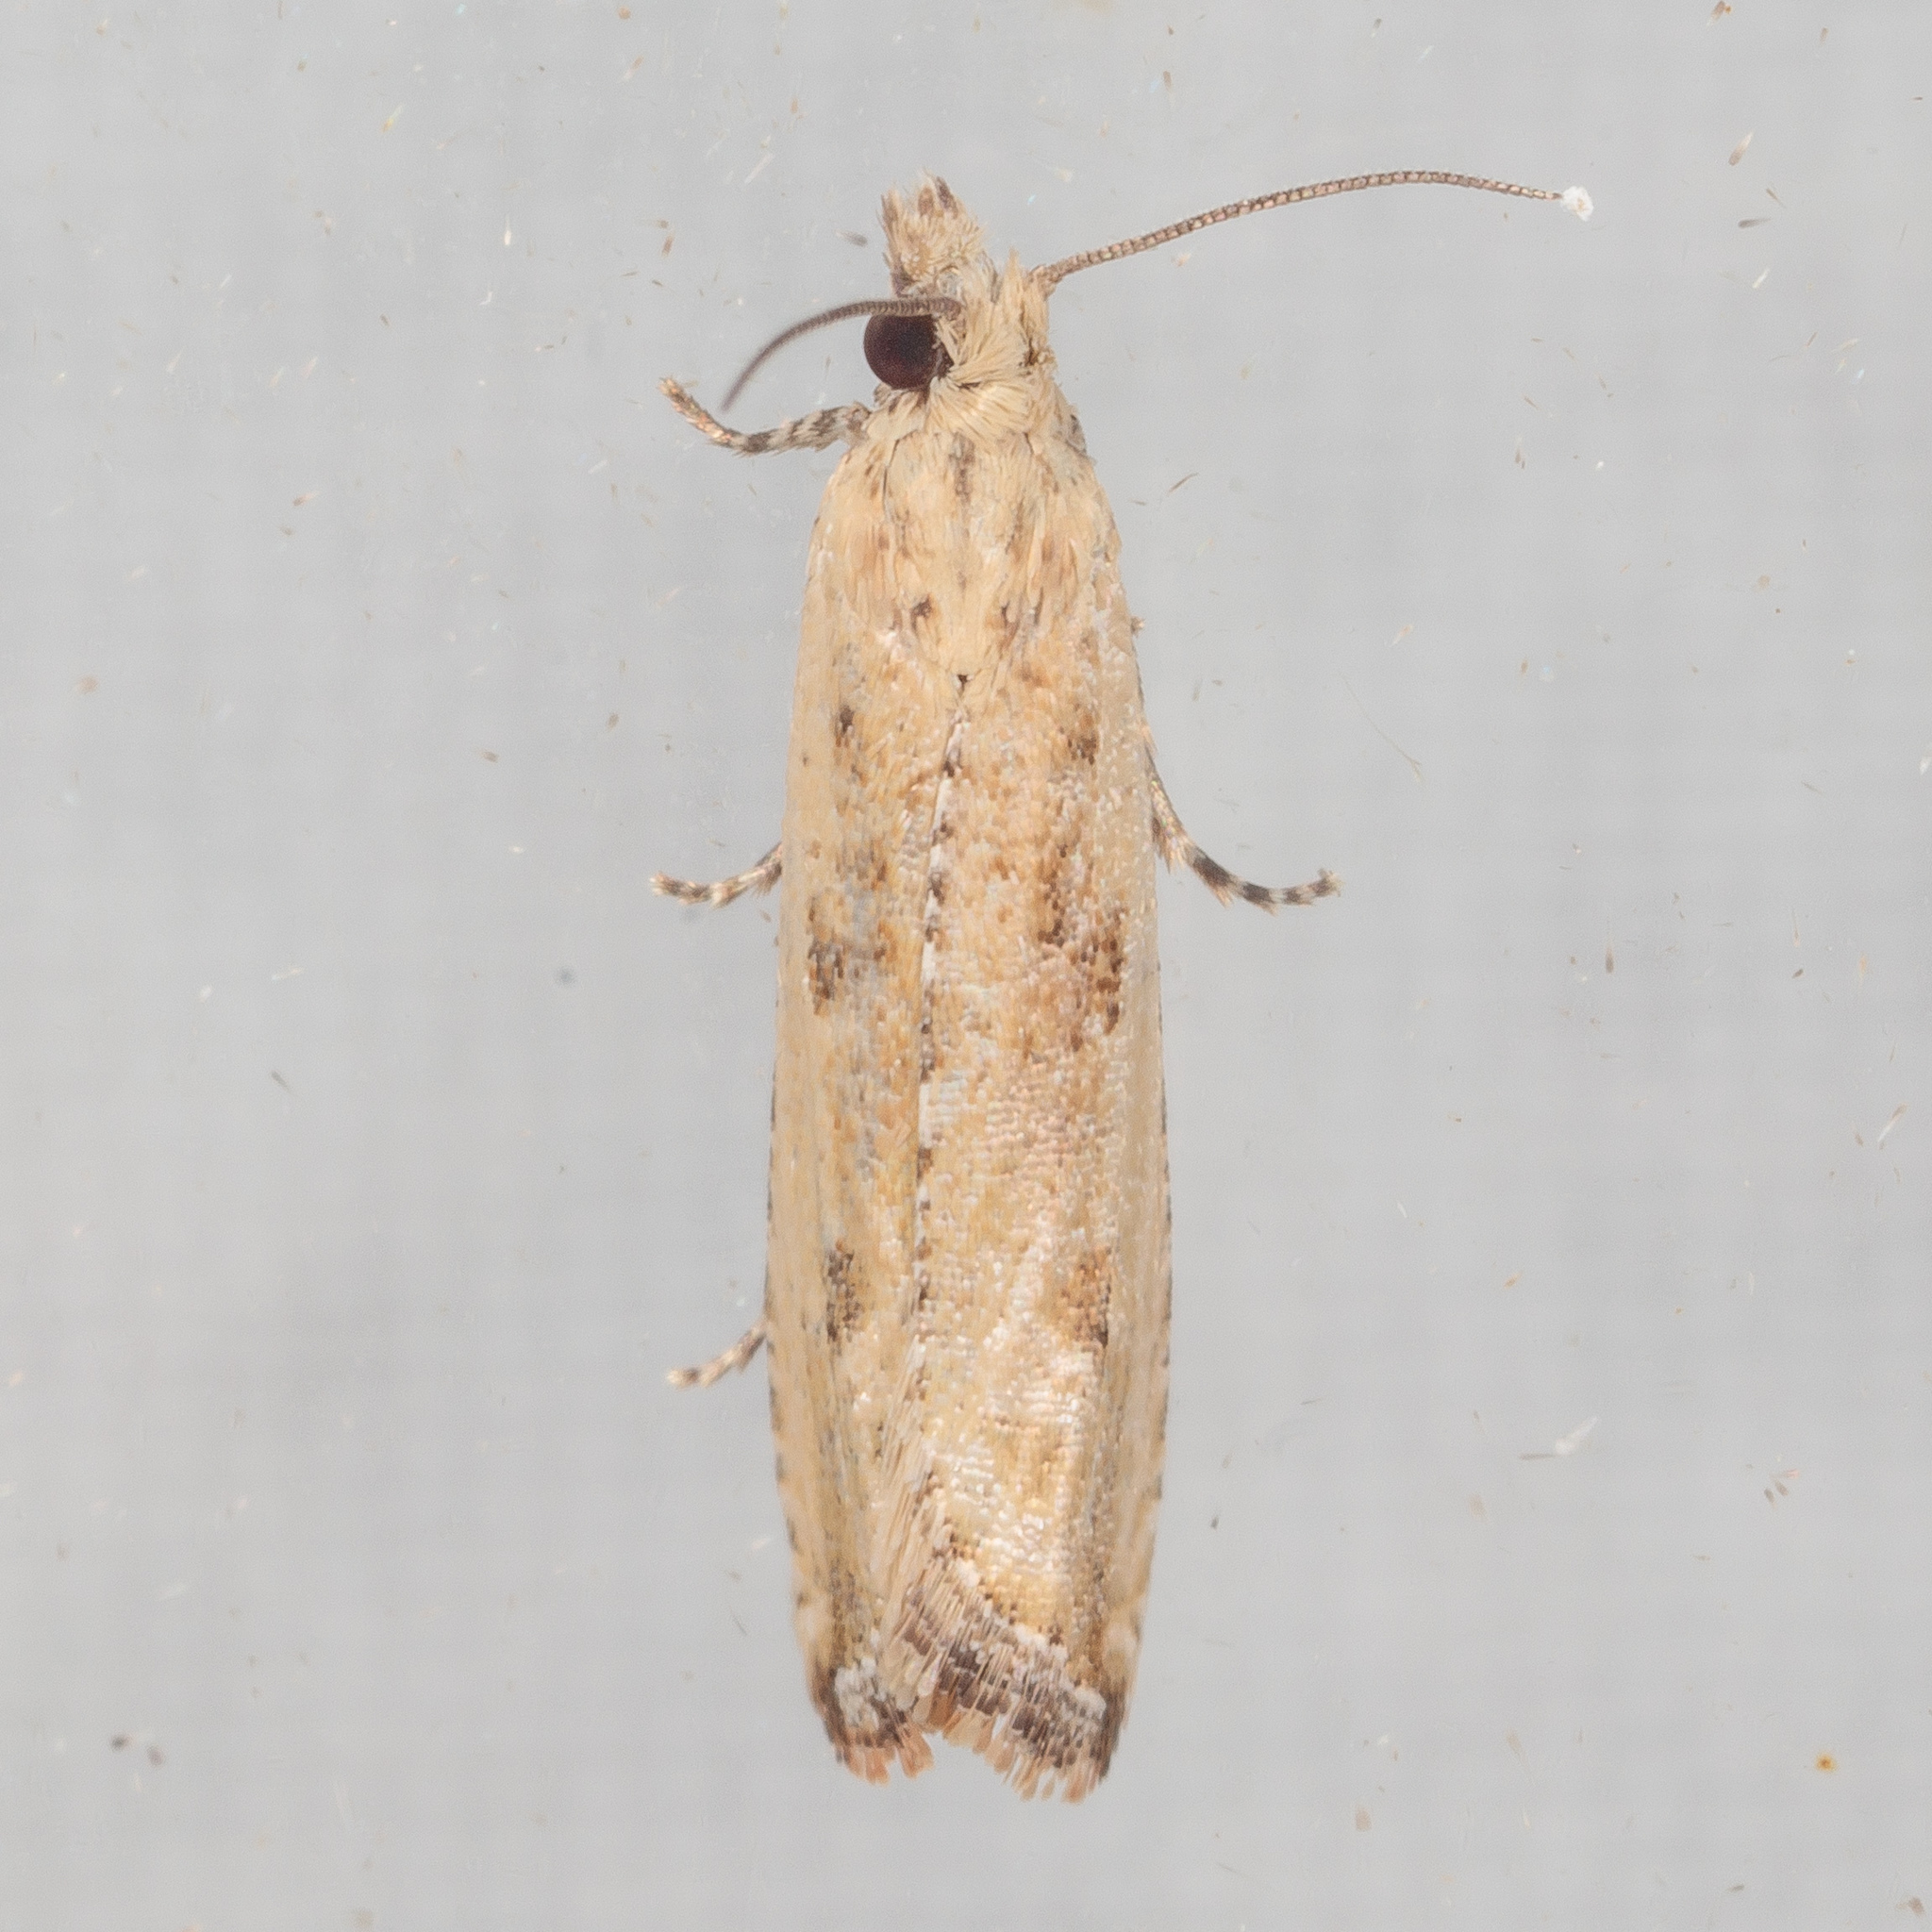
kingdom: Animalia
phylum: Arthropoda
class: Insecta
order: Lepidoptera
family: Tortricidae
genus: Bactra
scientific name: Bactra verutana
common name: Javelin moth
